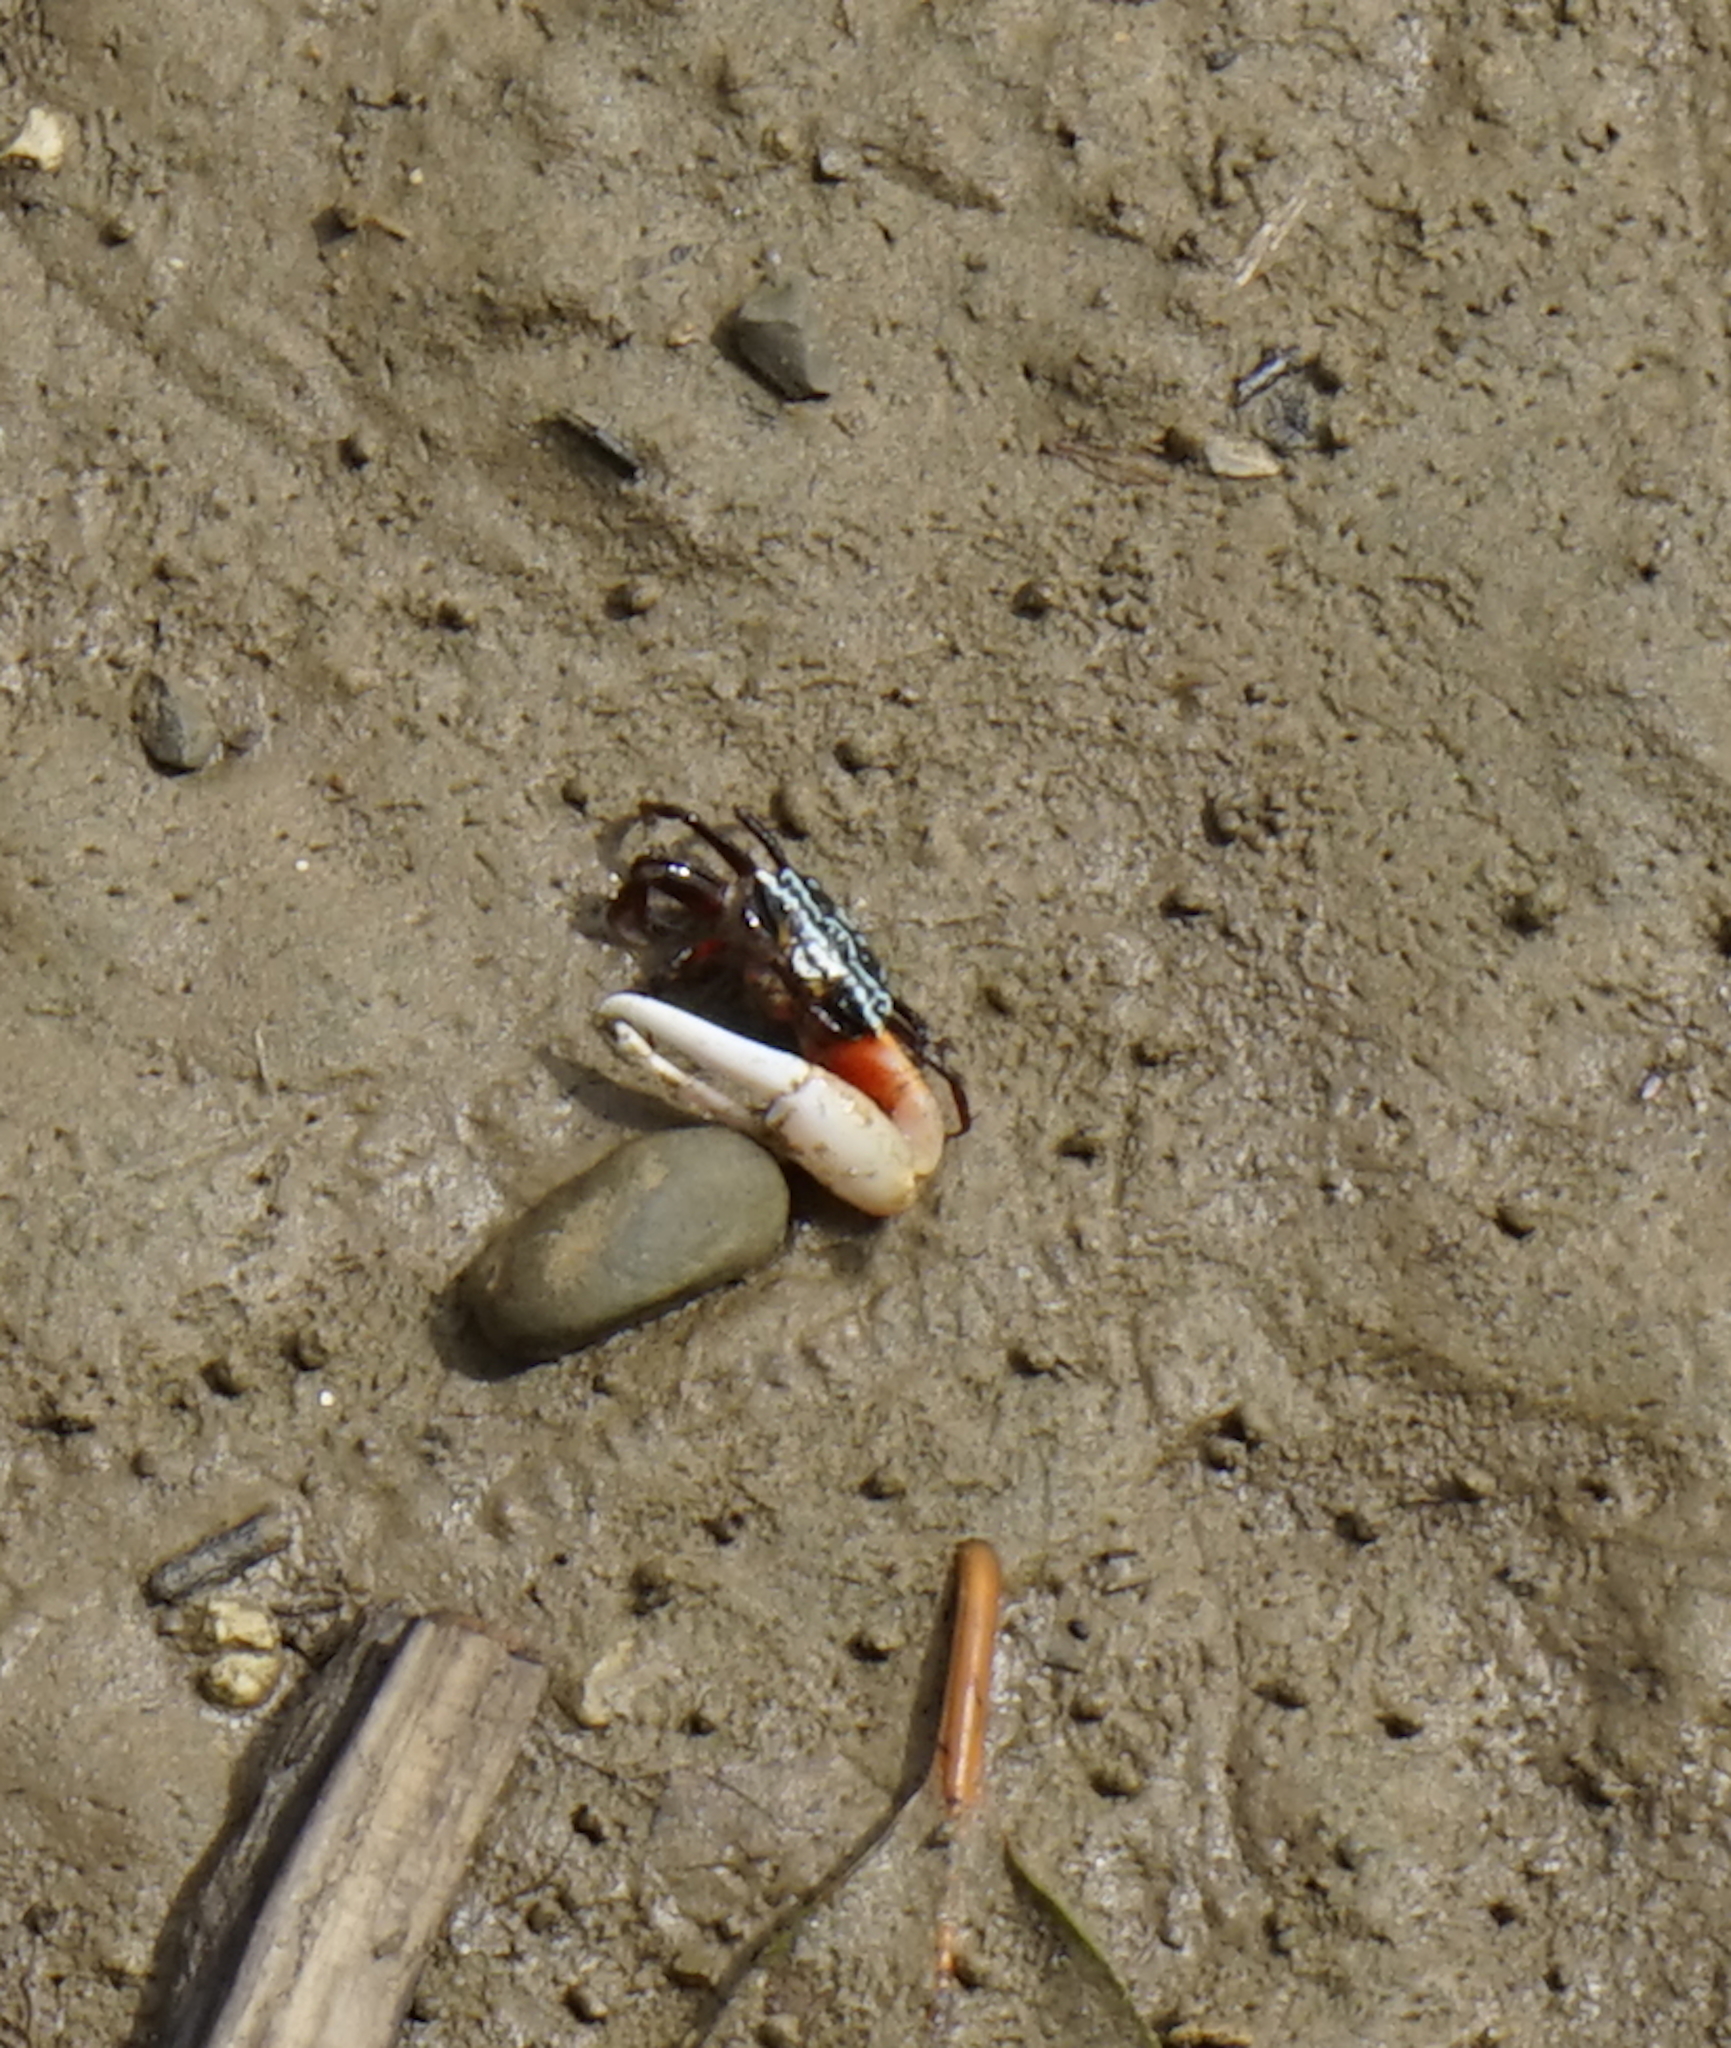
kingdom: Animalia
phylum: Arthropoda
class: Malacostraca
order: Decapoda
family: Ocypodidae
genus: Austruca
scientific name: Austruca annulipes
